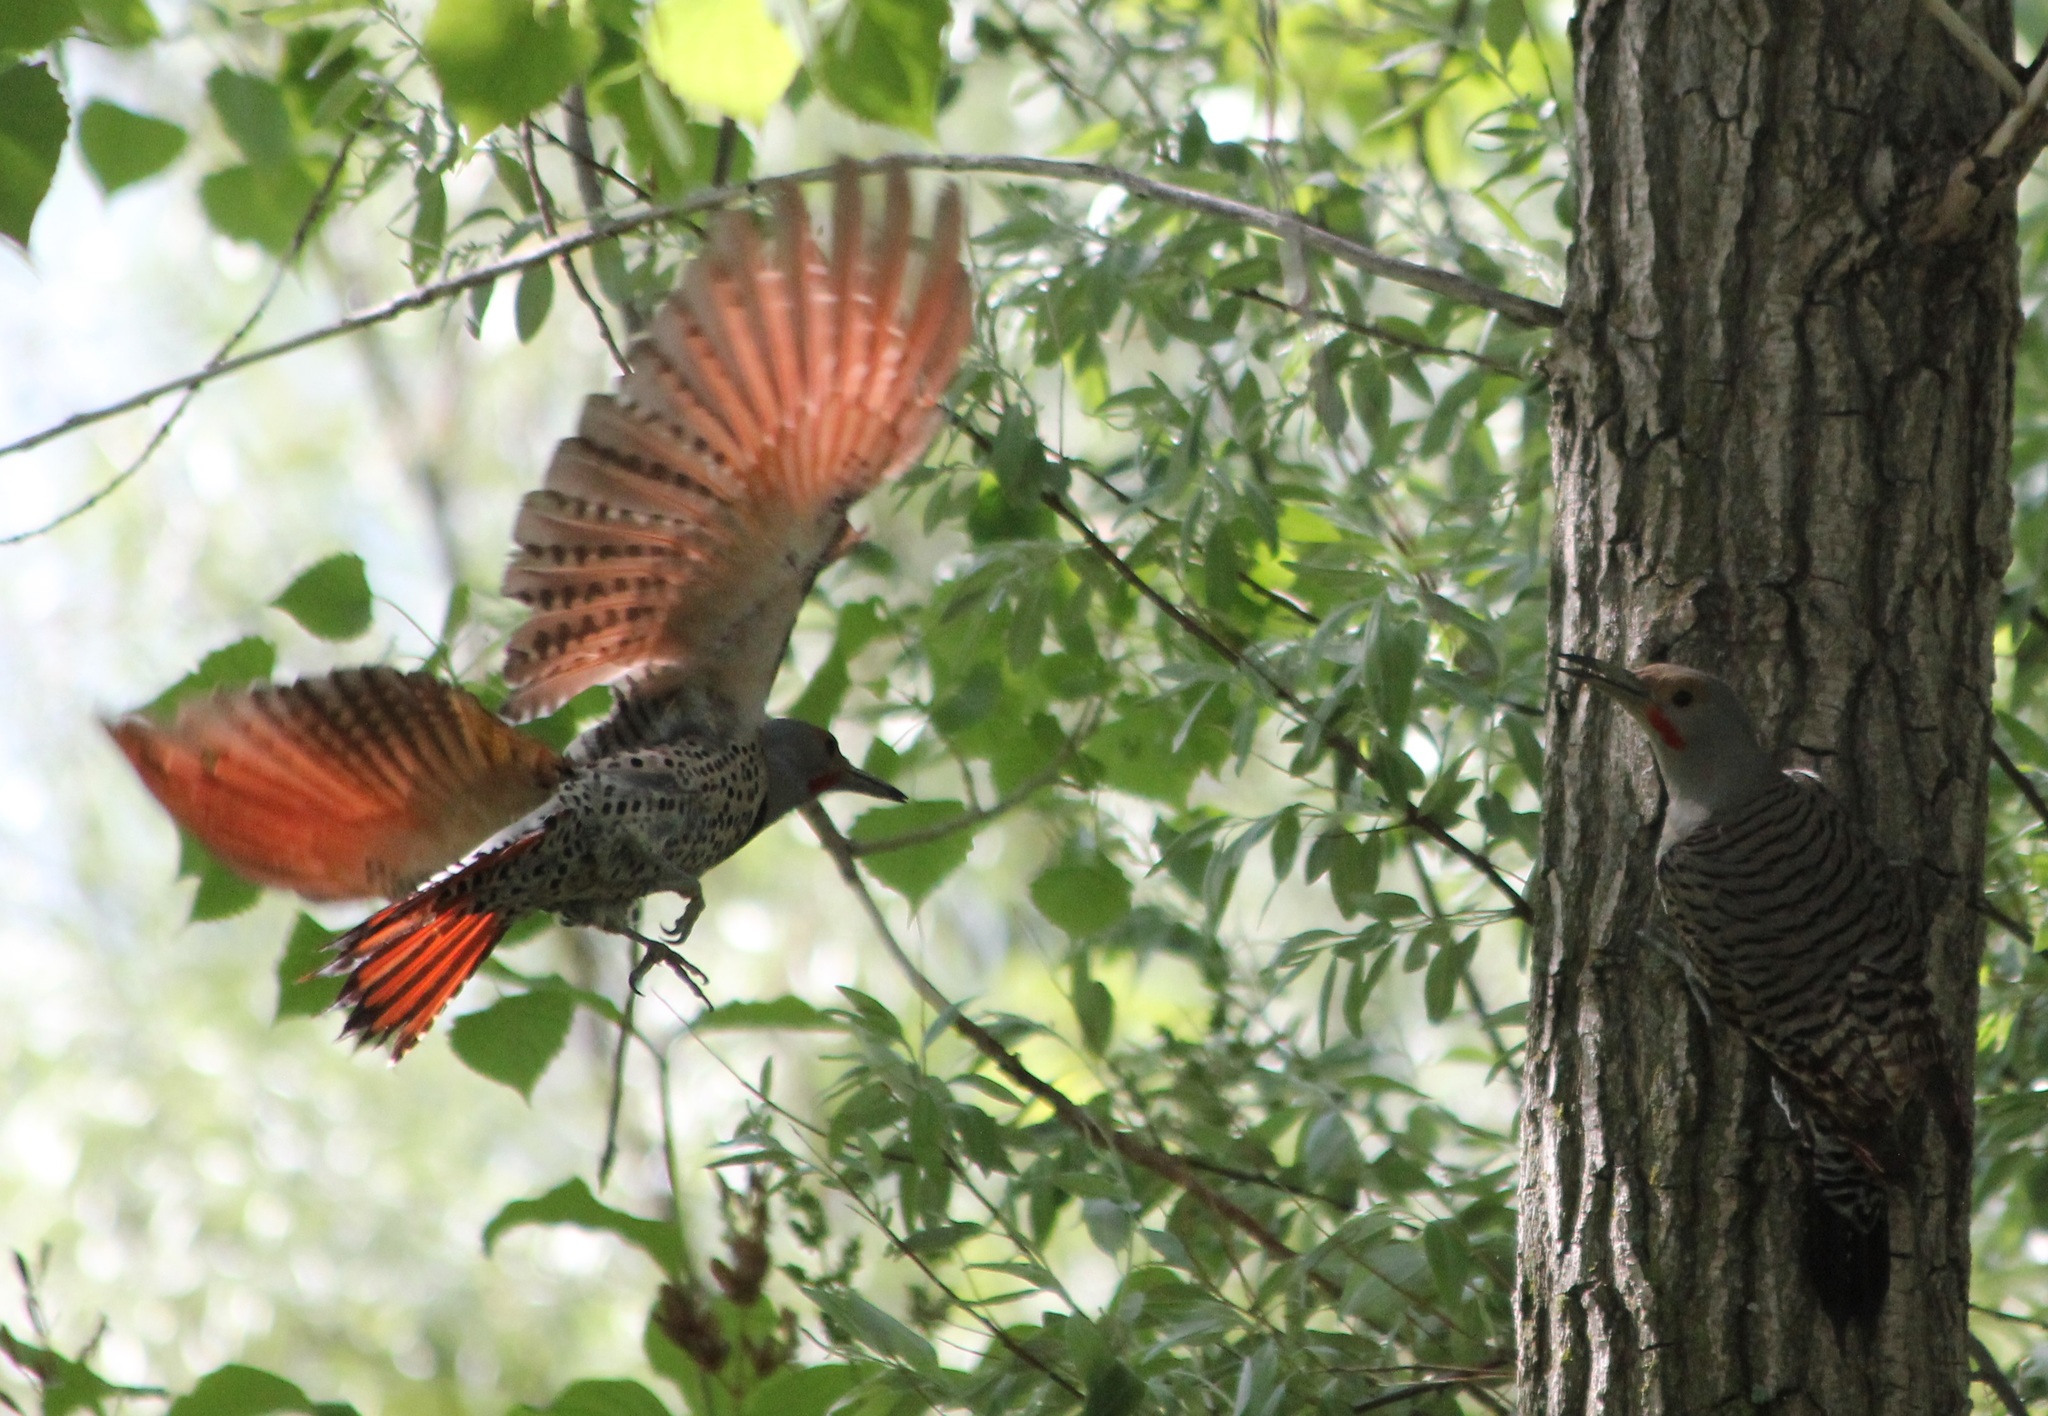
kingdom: Animalia
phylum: Chordata
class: Aves
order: Piciformes
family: Picidae
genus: Colaptes
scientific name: Colaptes auratus
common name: Northern flicker
